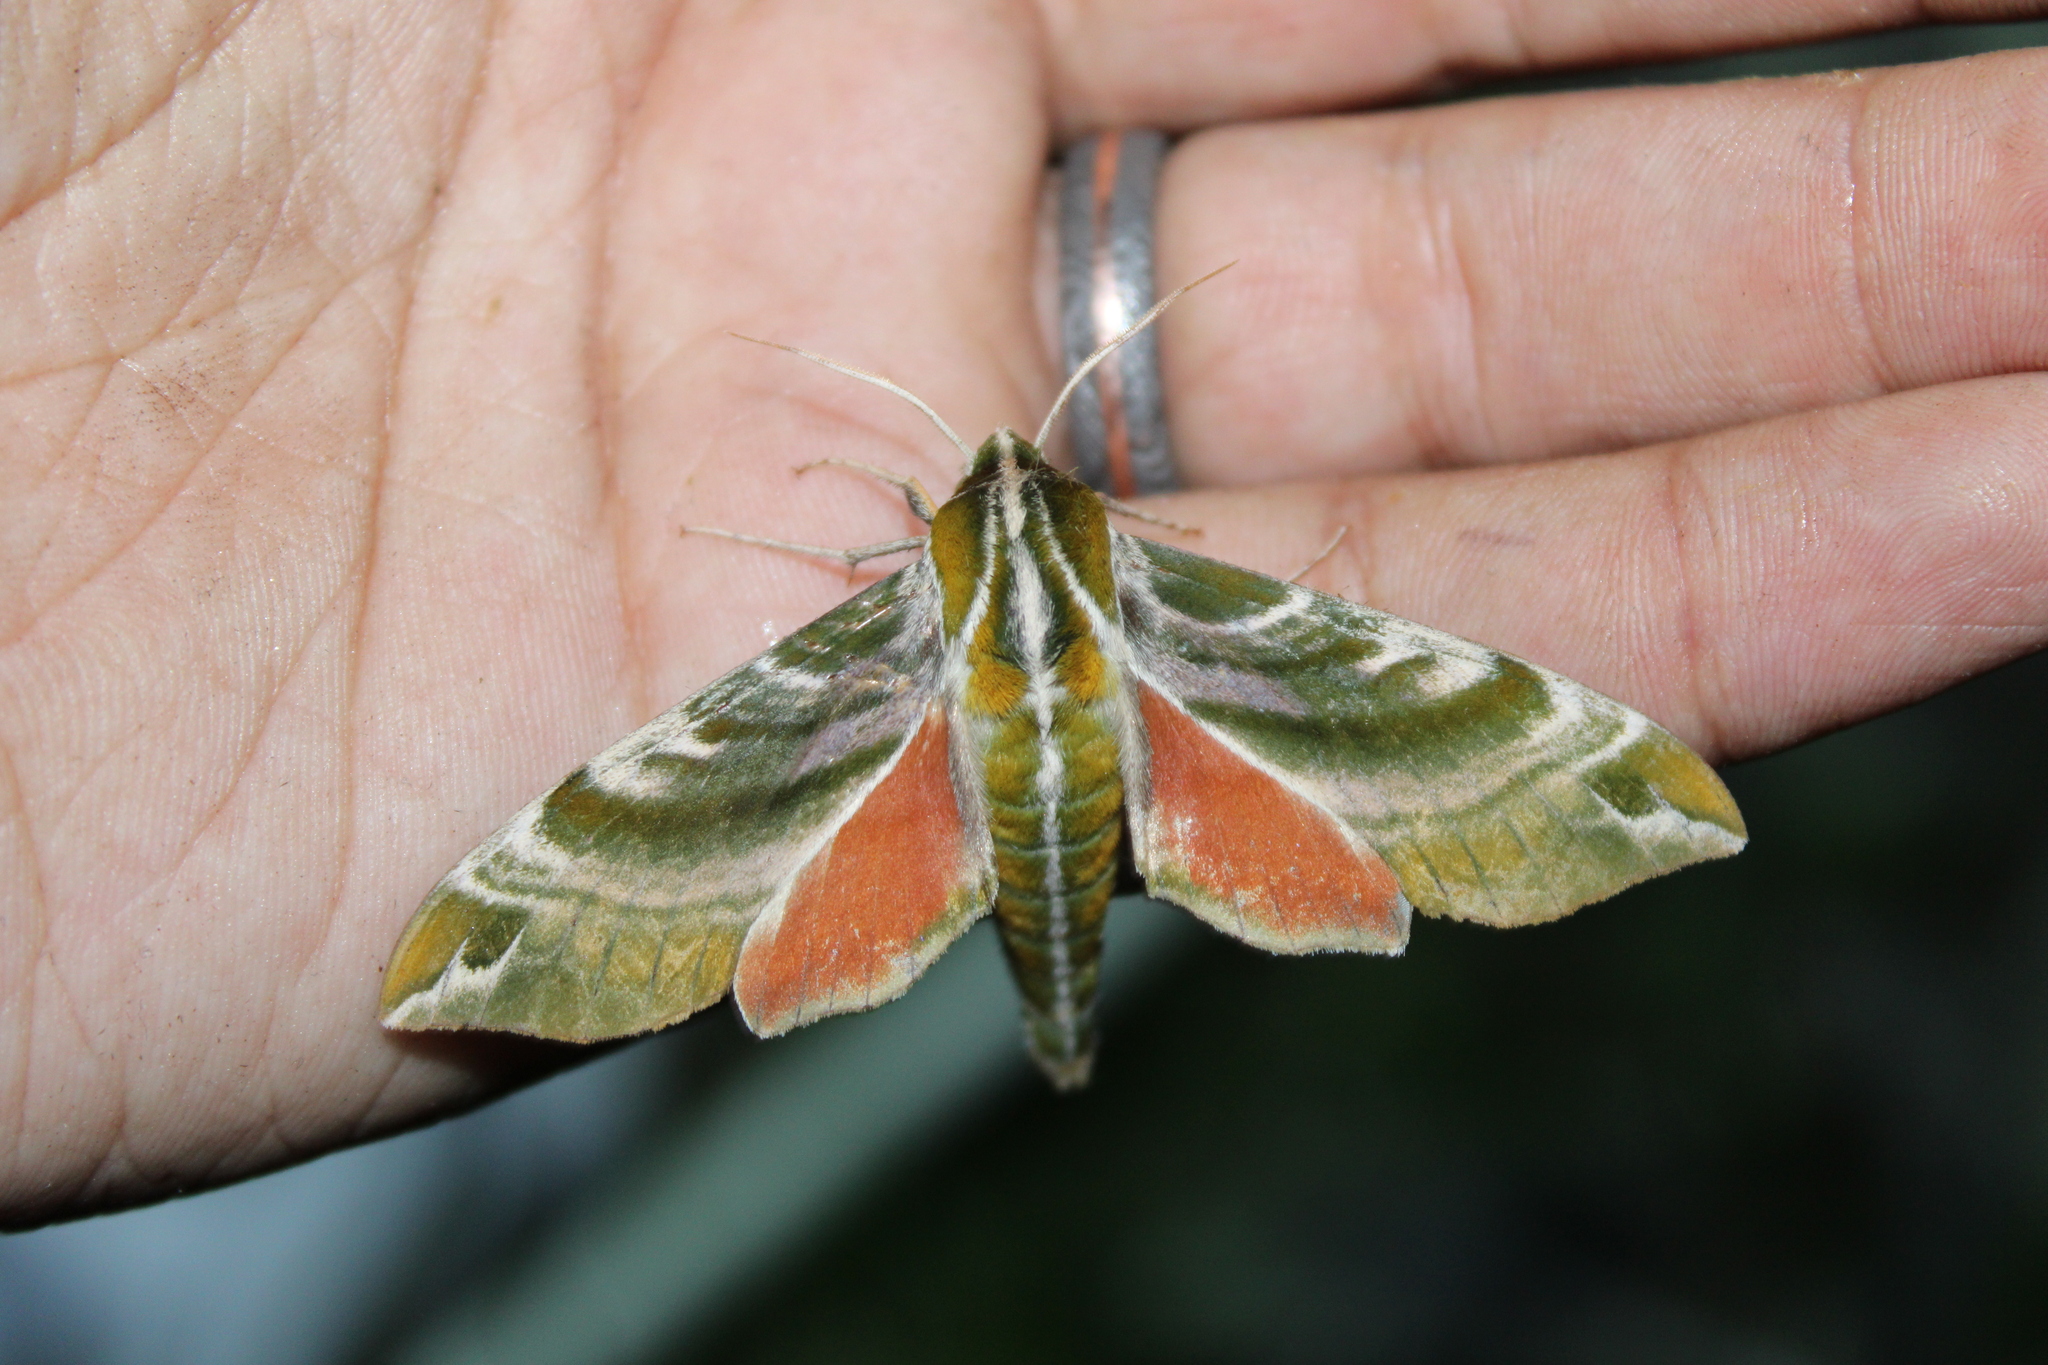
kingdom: Animalia
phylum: Arthropoda
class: Insecta
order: Lepidoptera
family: Sphingidae
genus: Darapsa
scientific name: Darapsa versicolor
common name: Hydrangea sphinx
